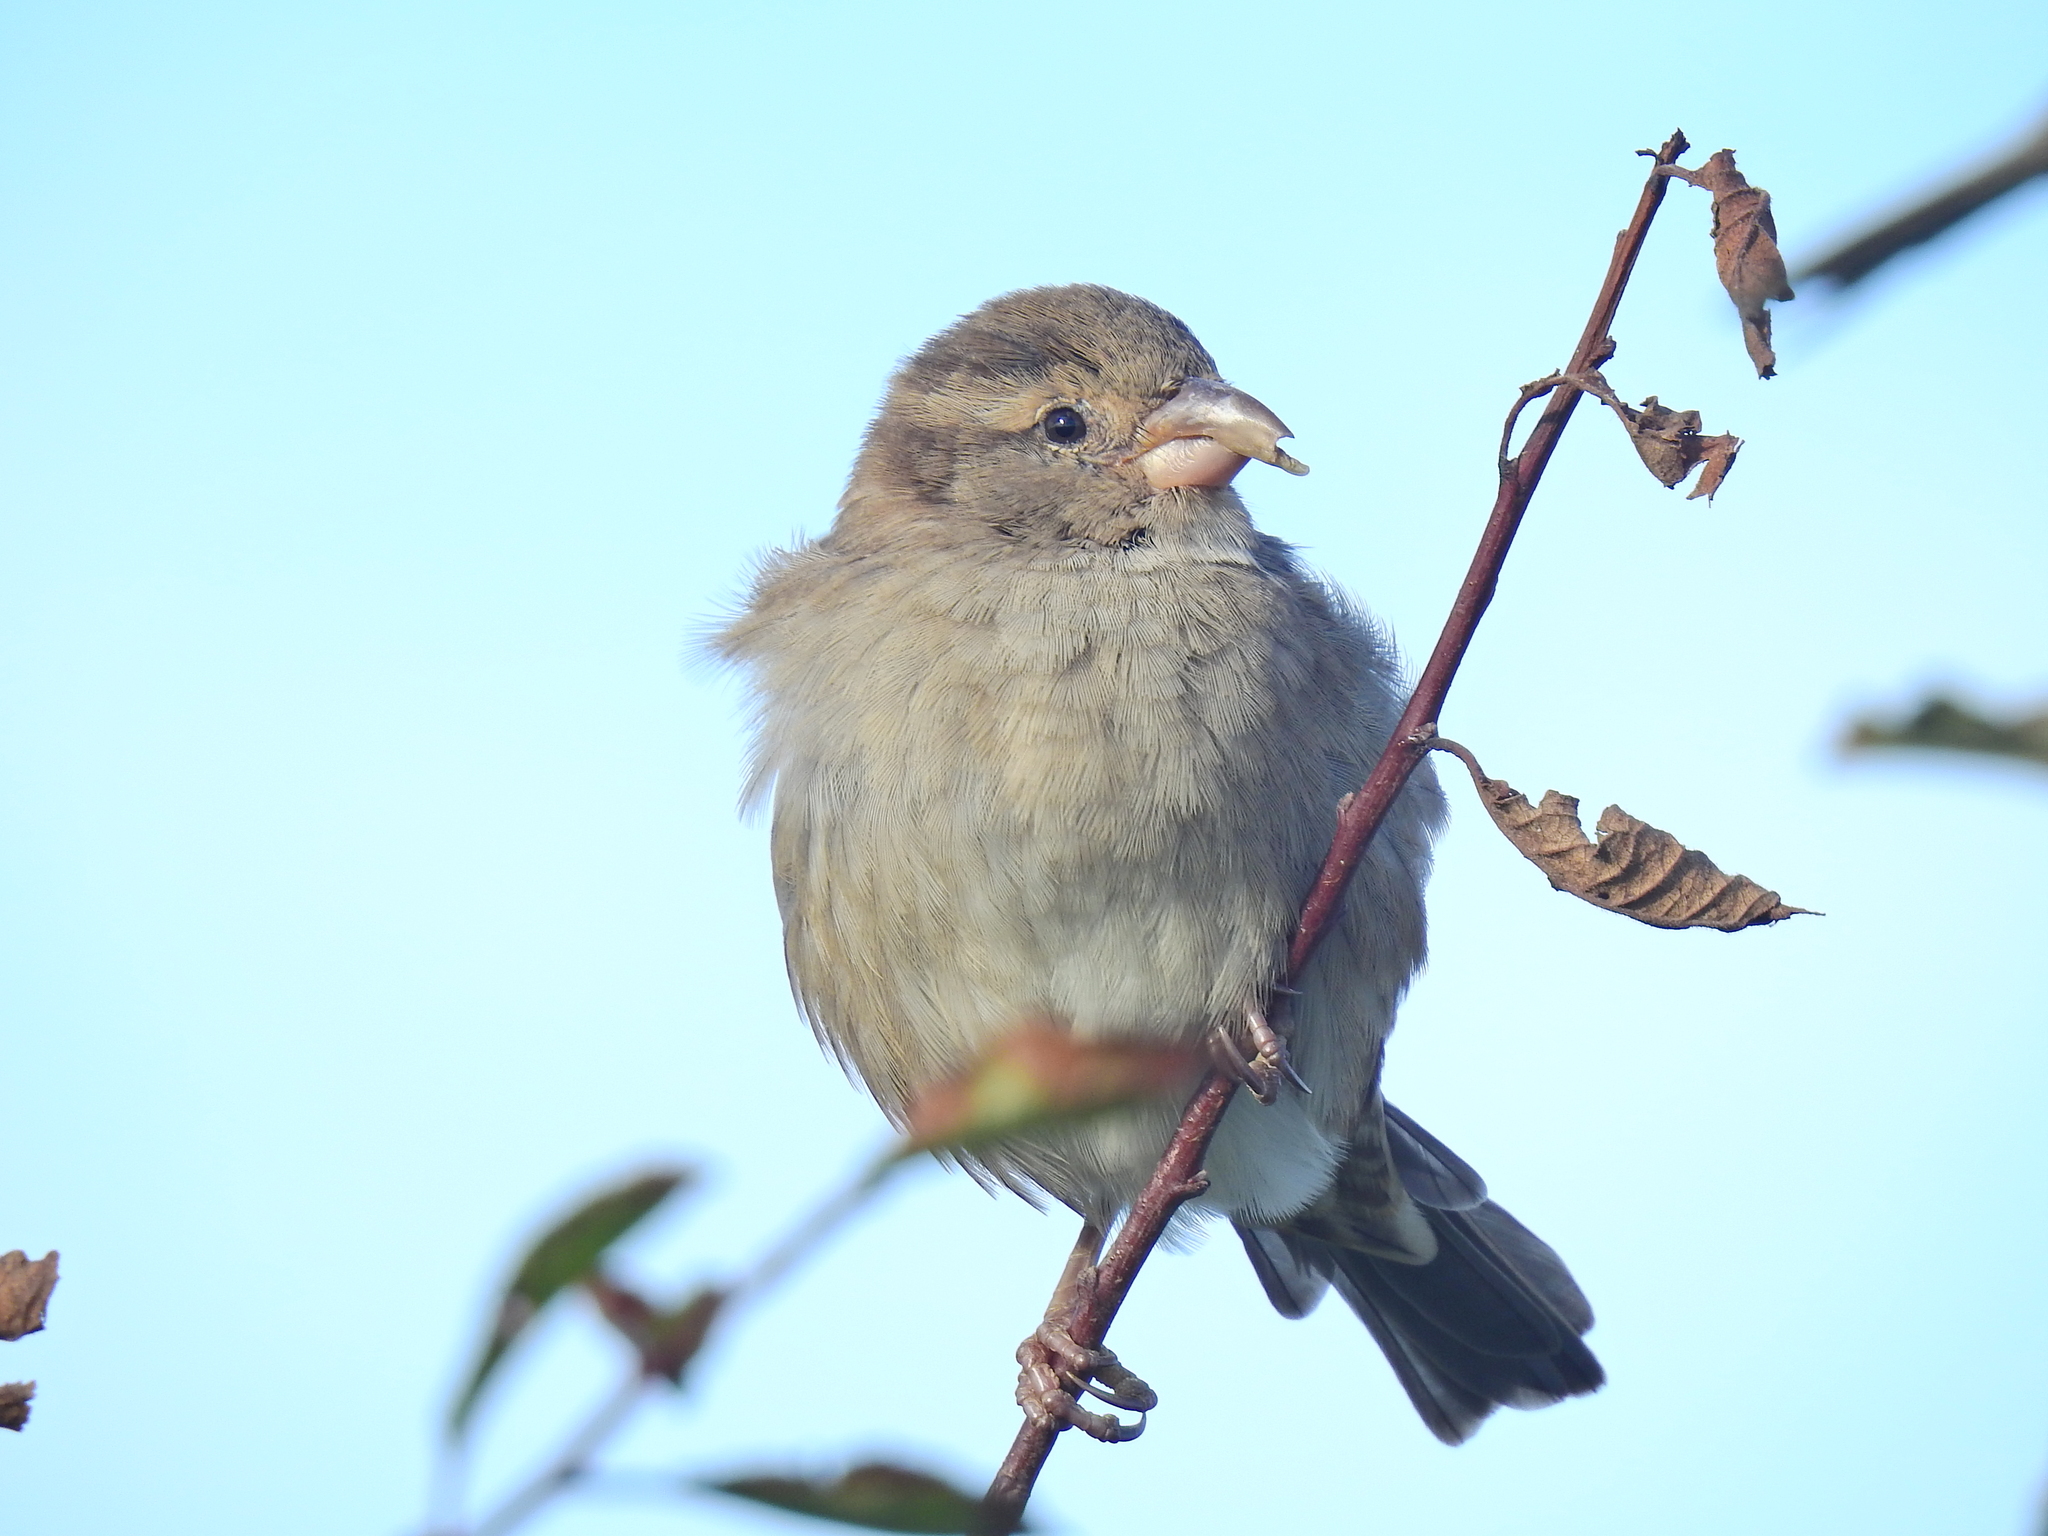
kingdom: Animalia
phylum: Chordata
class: Aves
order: Passeriformes
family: Passeridae
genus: Passer
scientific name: Passer domesticus
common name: House sparrow
